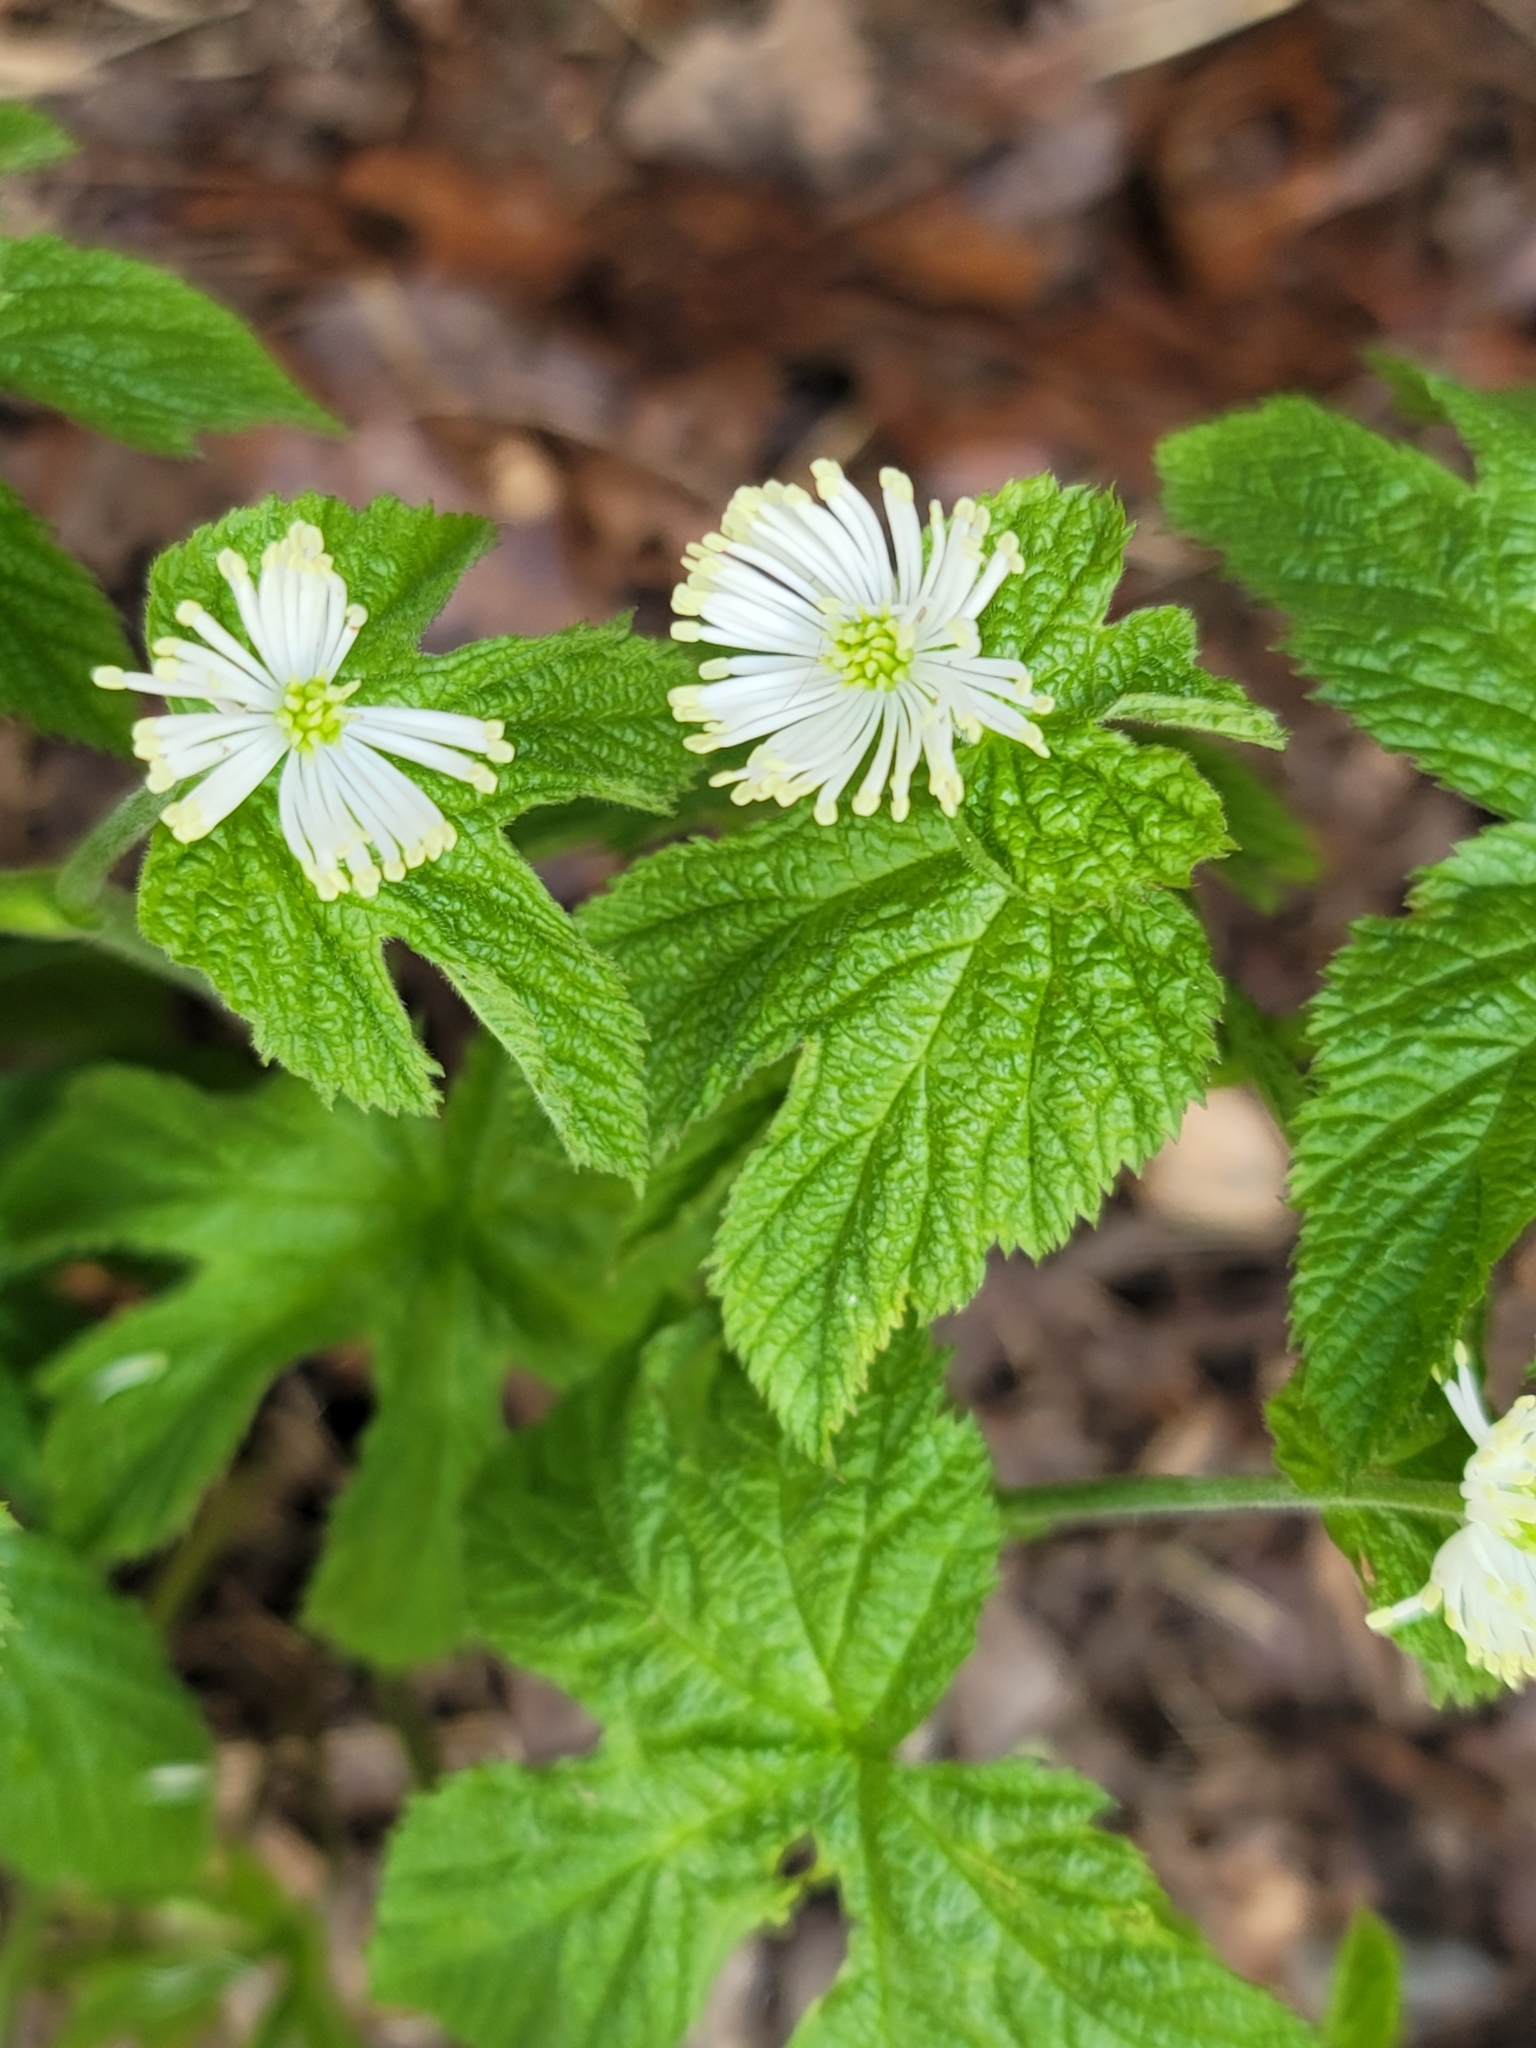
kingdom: Plantae
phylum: Tracheophyta
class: Magnoliopsida
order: Ranunculales
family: Ranunculaceae
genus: Hydrastis
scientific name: Hydrastis canadensis
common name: Goldenseal
